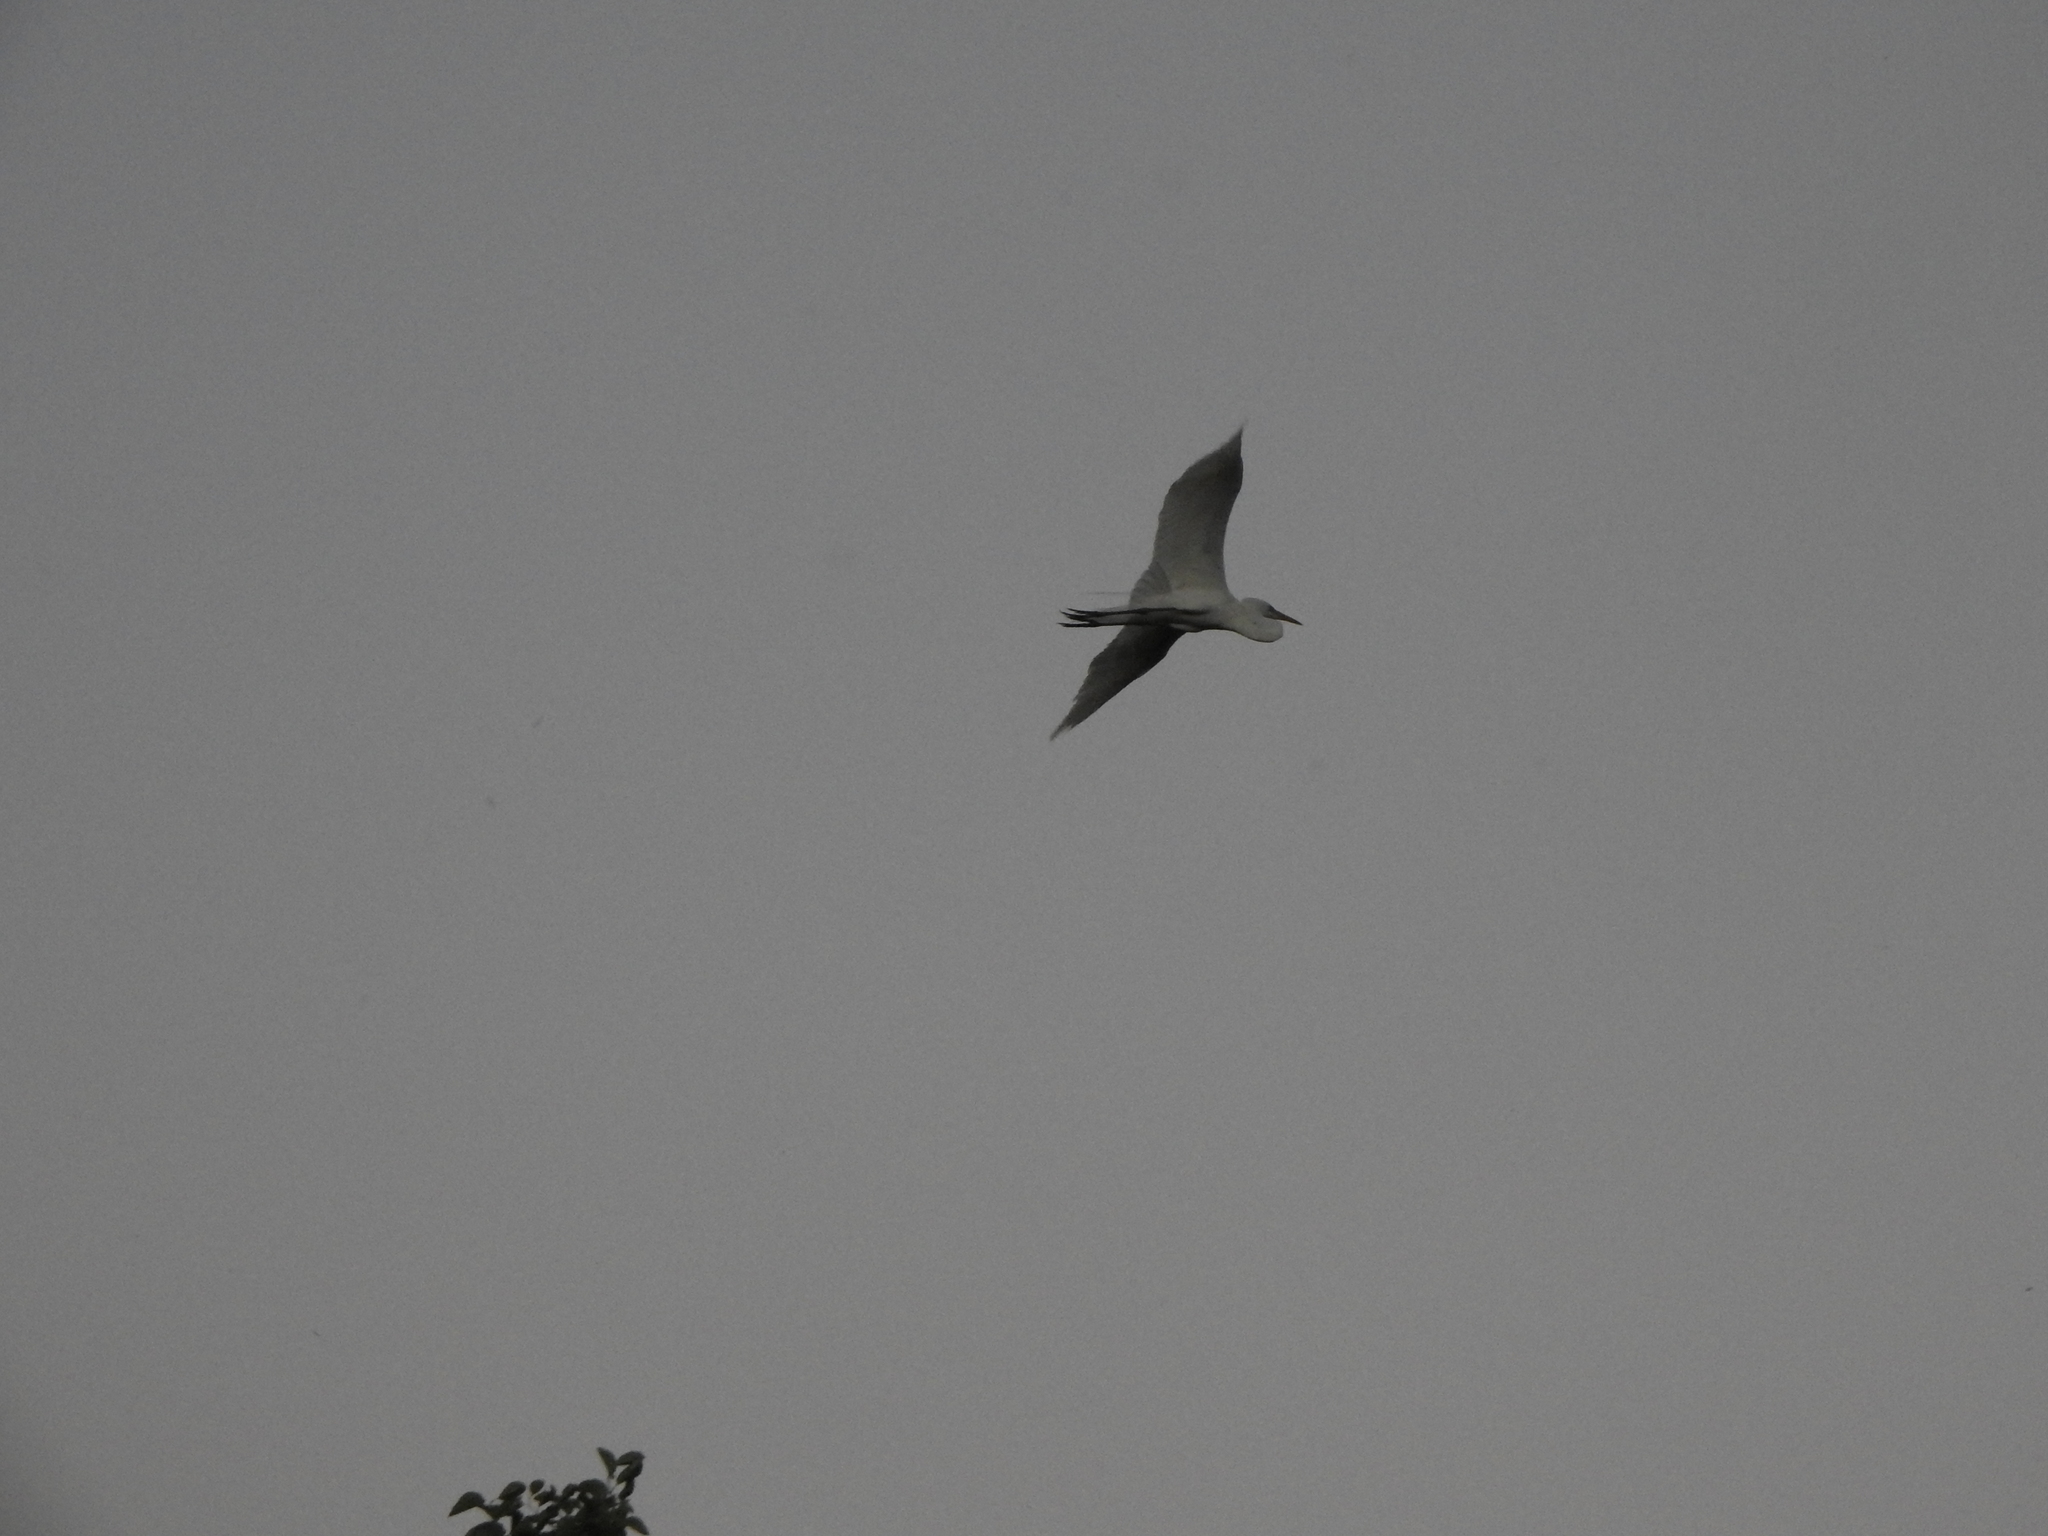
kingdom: Animalia
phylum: Chordata
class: Aves
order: Pelecaniformes
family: Ardeidae
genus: Ardea
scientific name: Ardea alba
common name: Great egret
